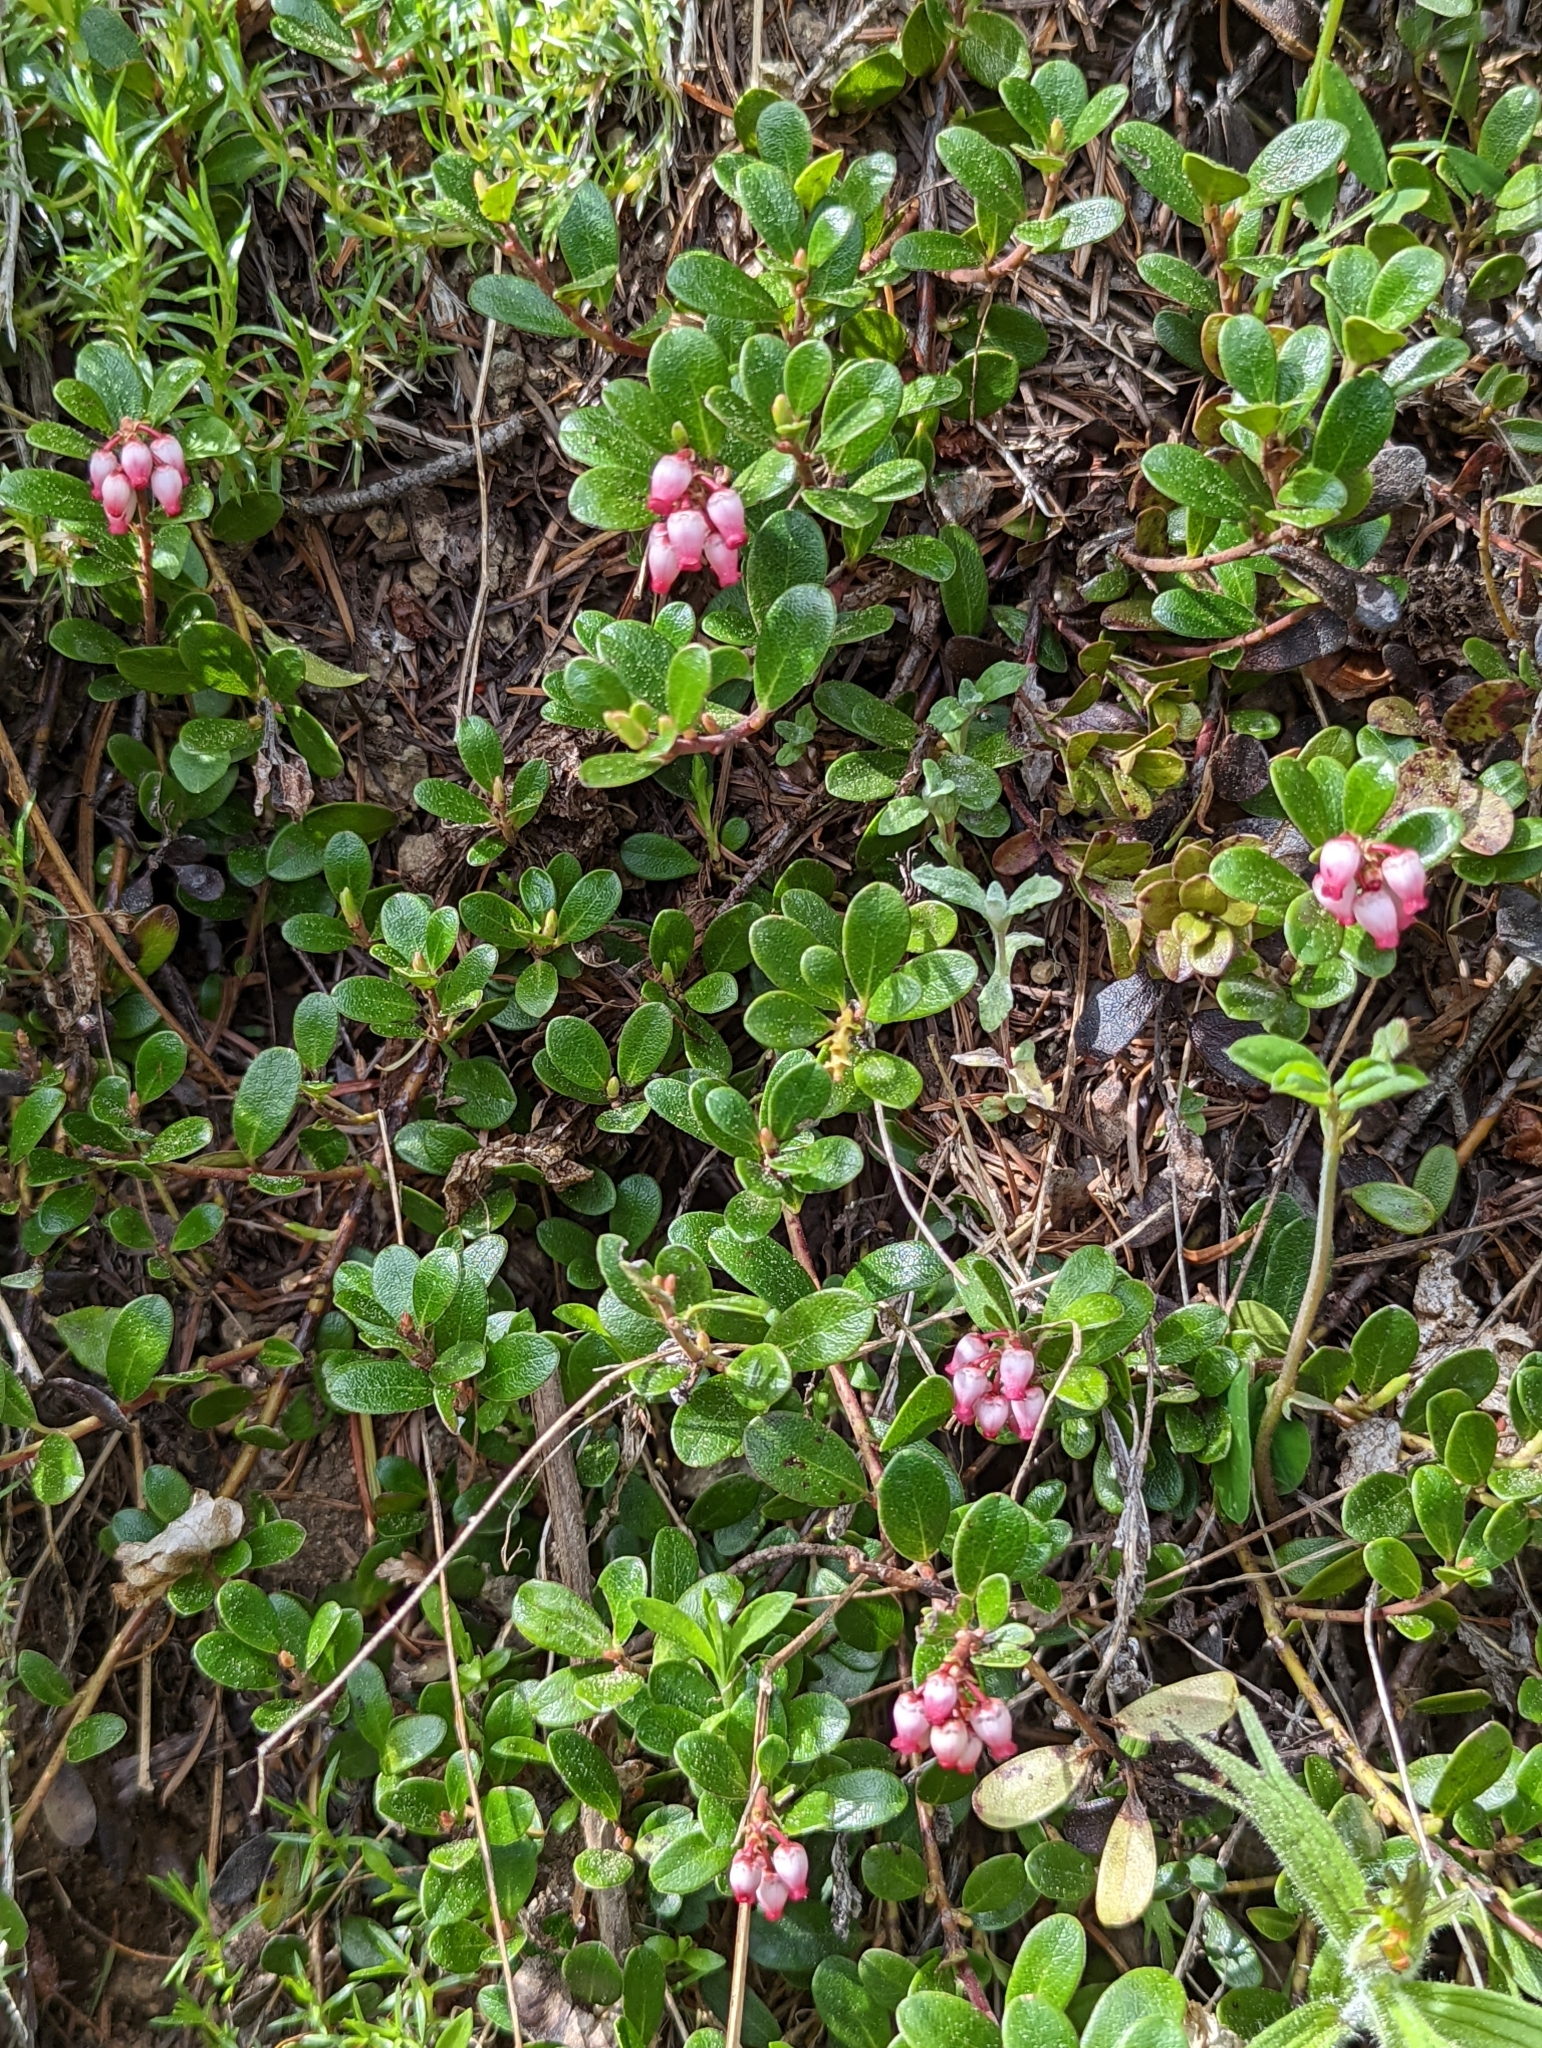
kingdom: Plantae
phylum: Tracheophyta
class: Magnoliopsida
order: Ericales
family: Ericaceae
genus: Arctostaphylos
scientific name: Arctostaphylos uva-ursi
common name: Bearberry
